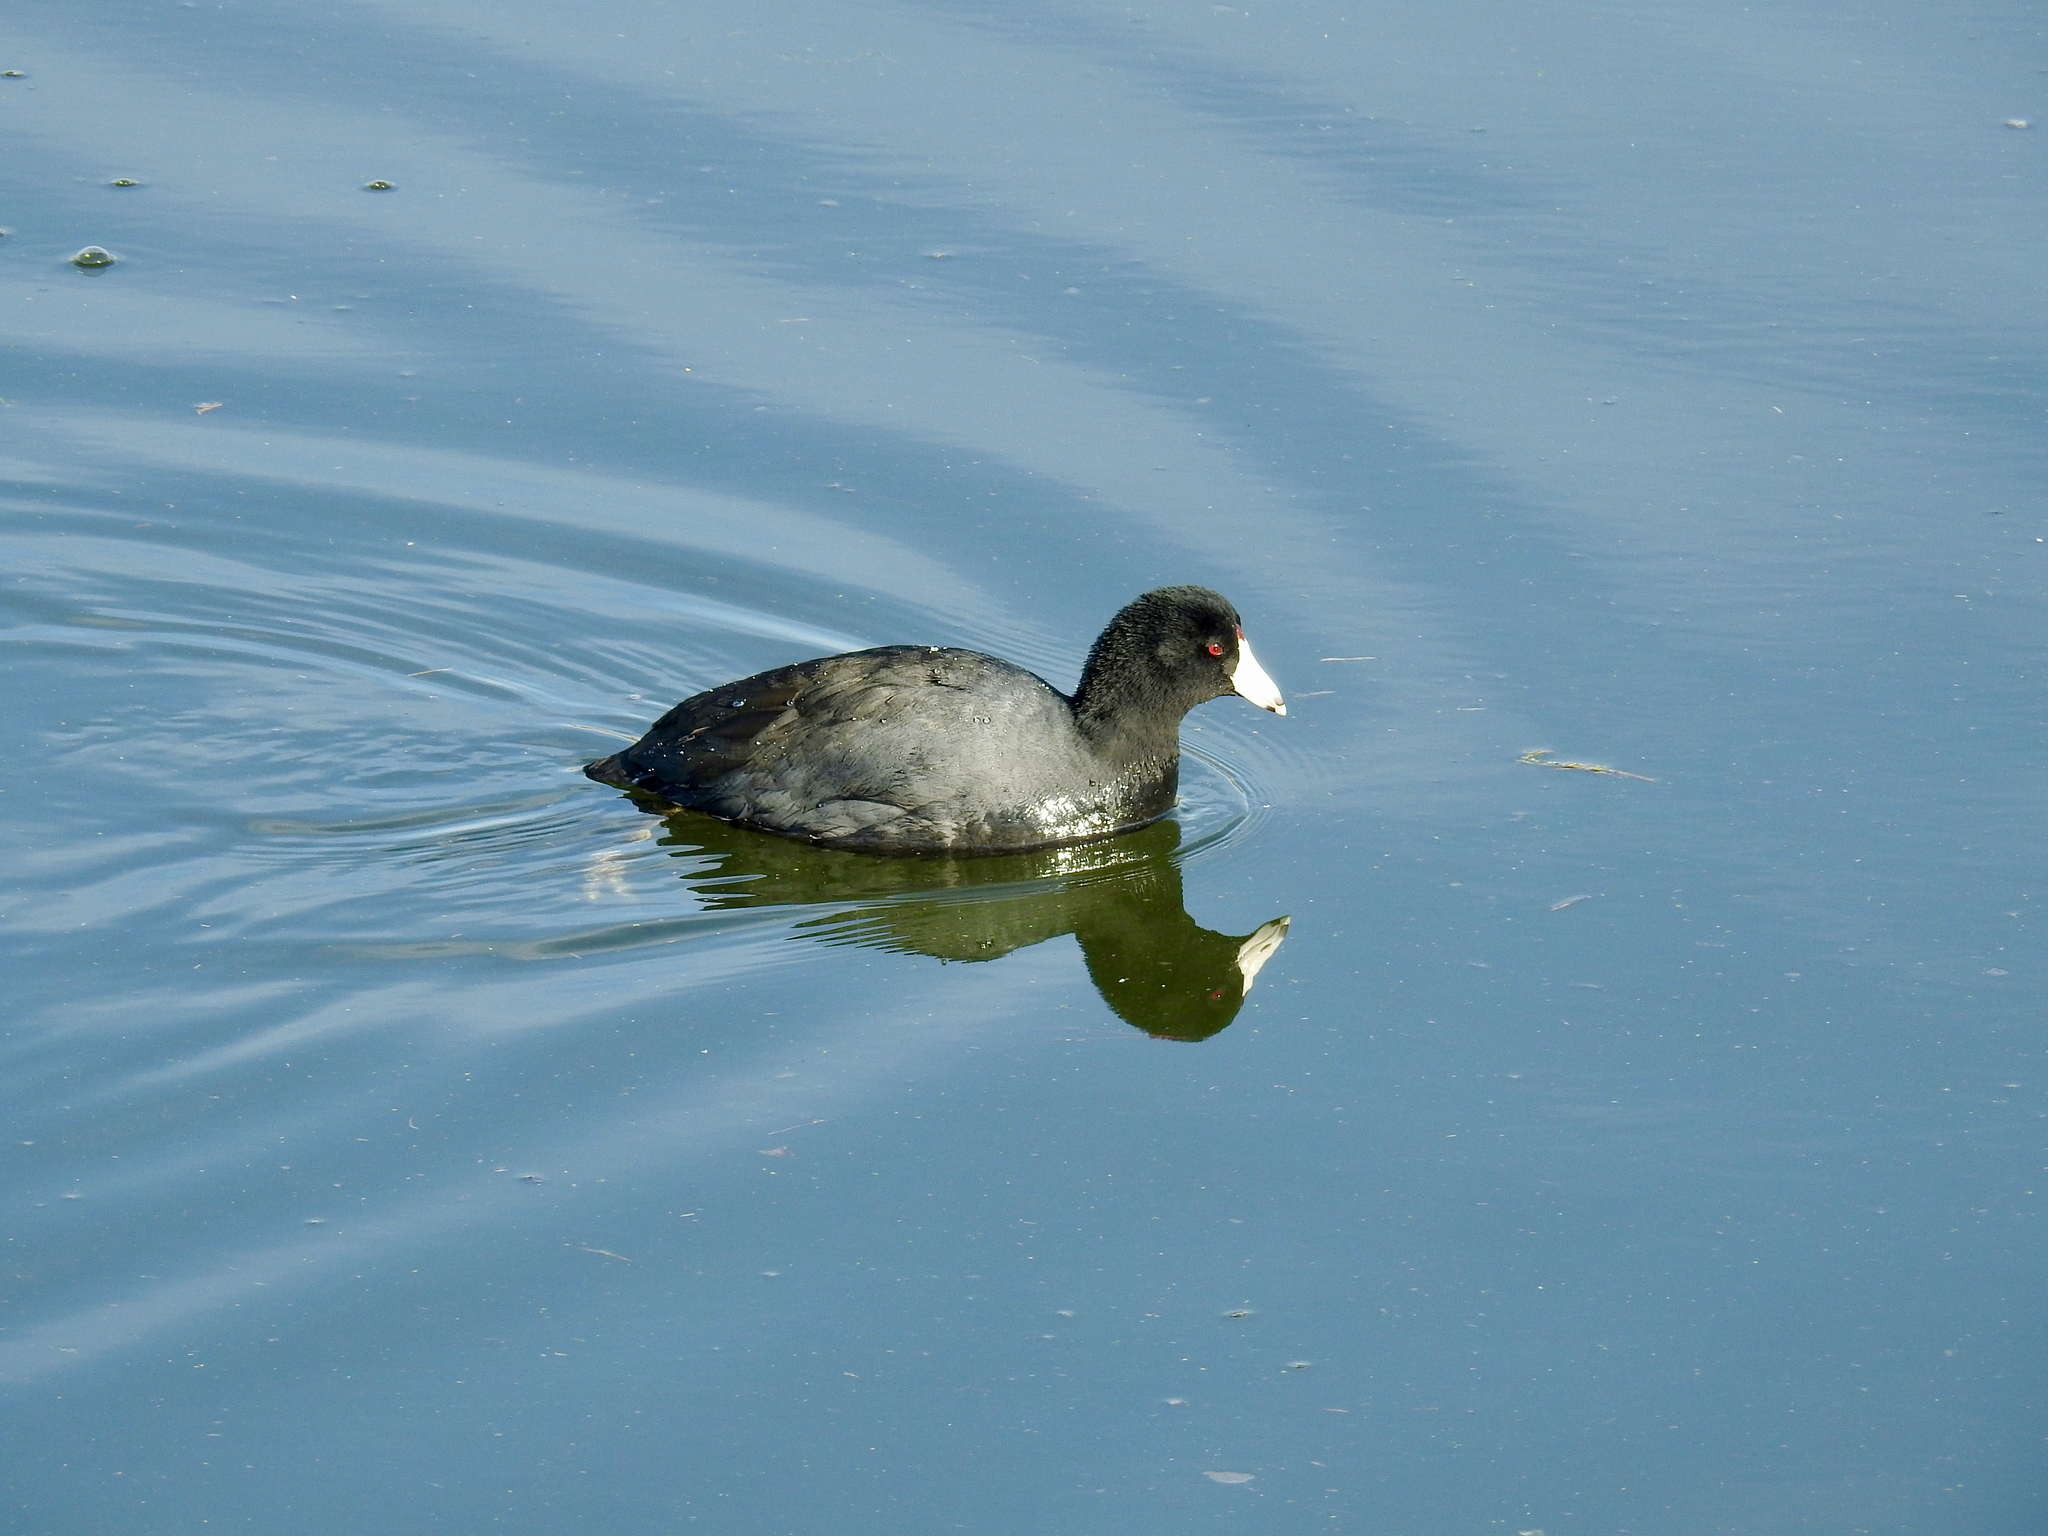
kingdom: Animalia
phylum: Chordata
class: Aves
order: Gruiformes
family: Rallidae
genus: Fulica
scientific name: Fulica americana
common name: American coot
